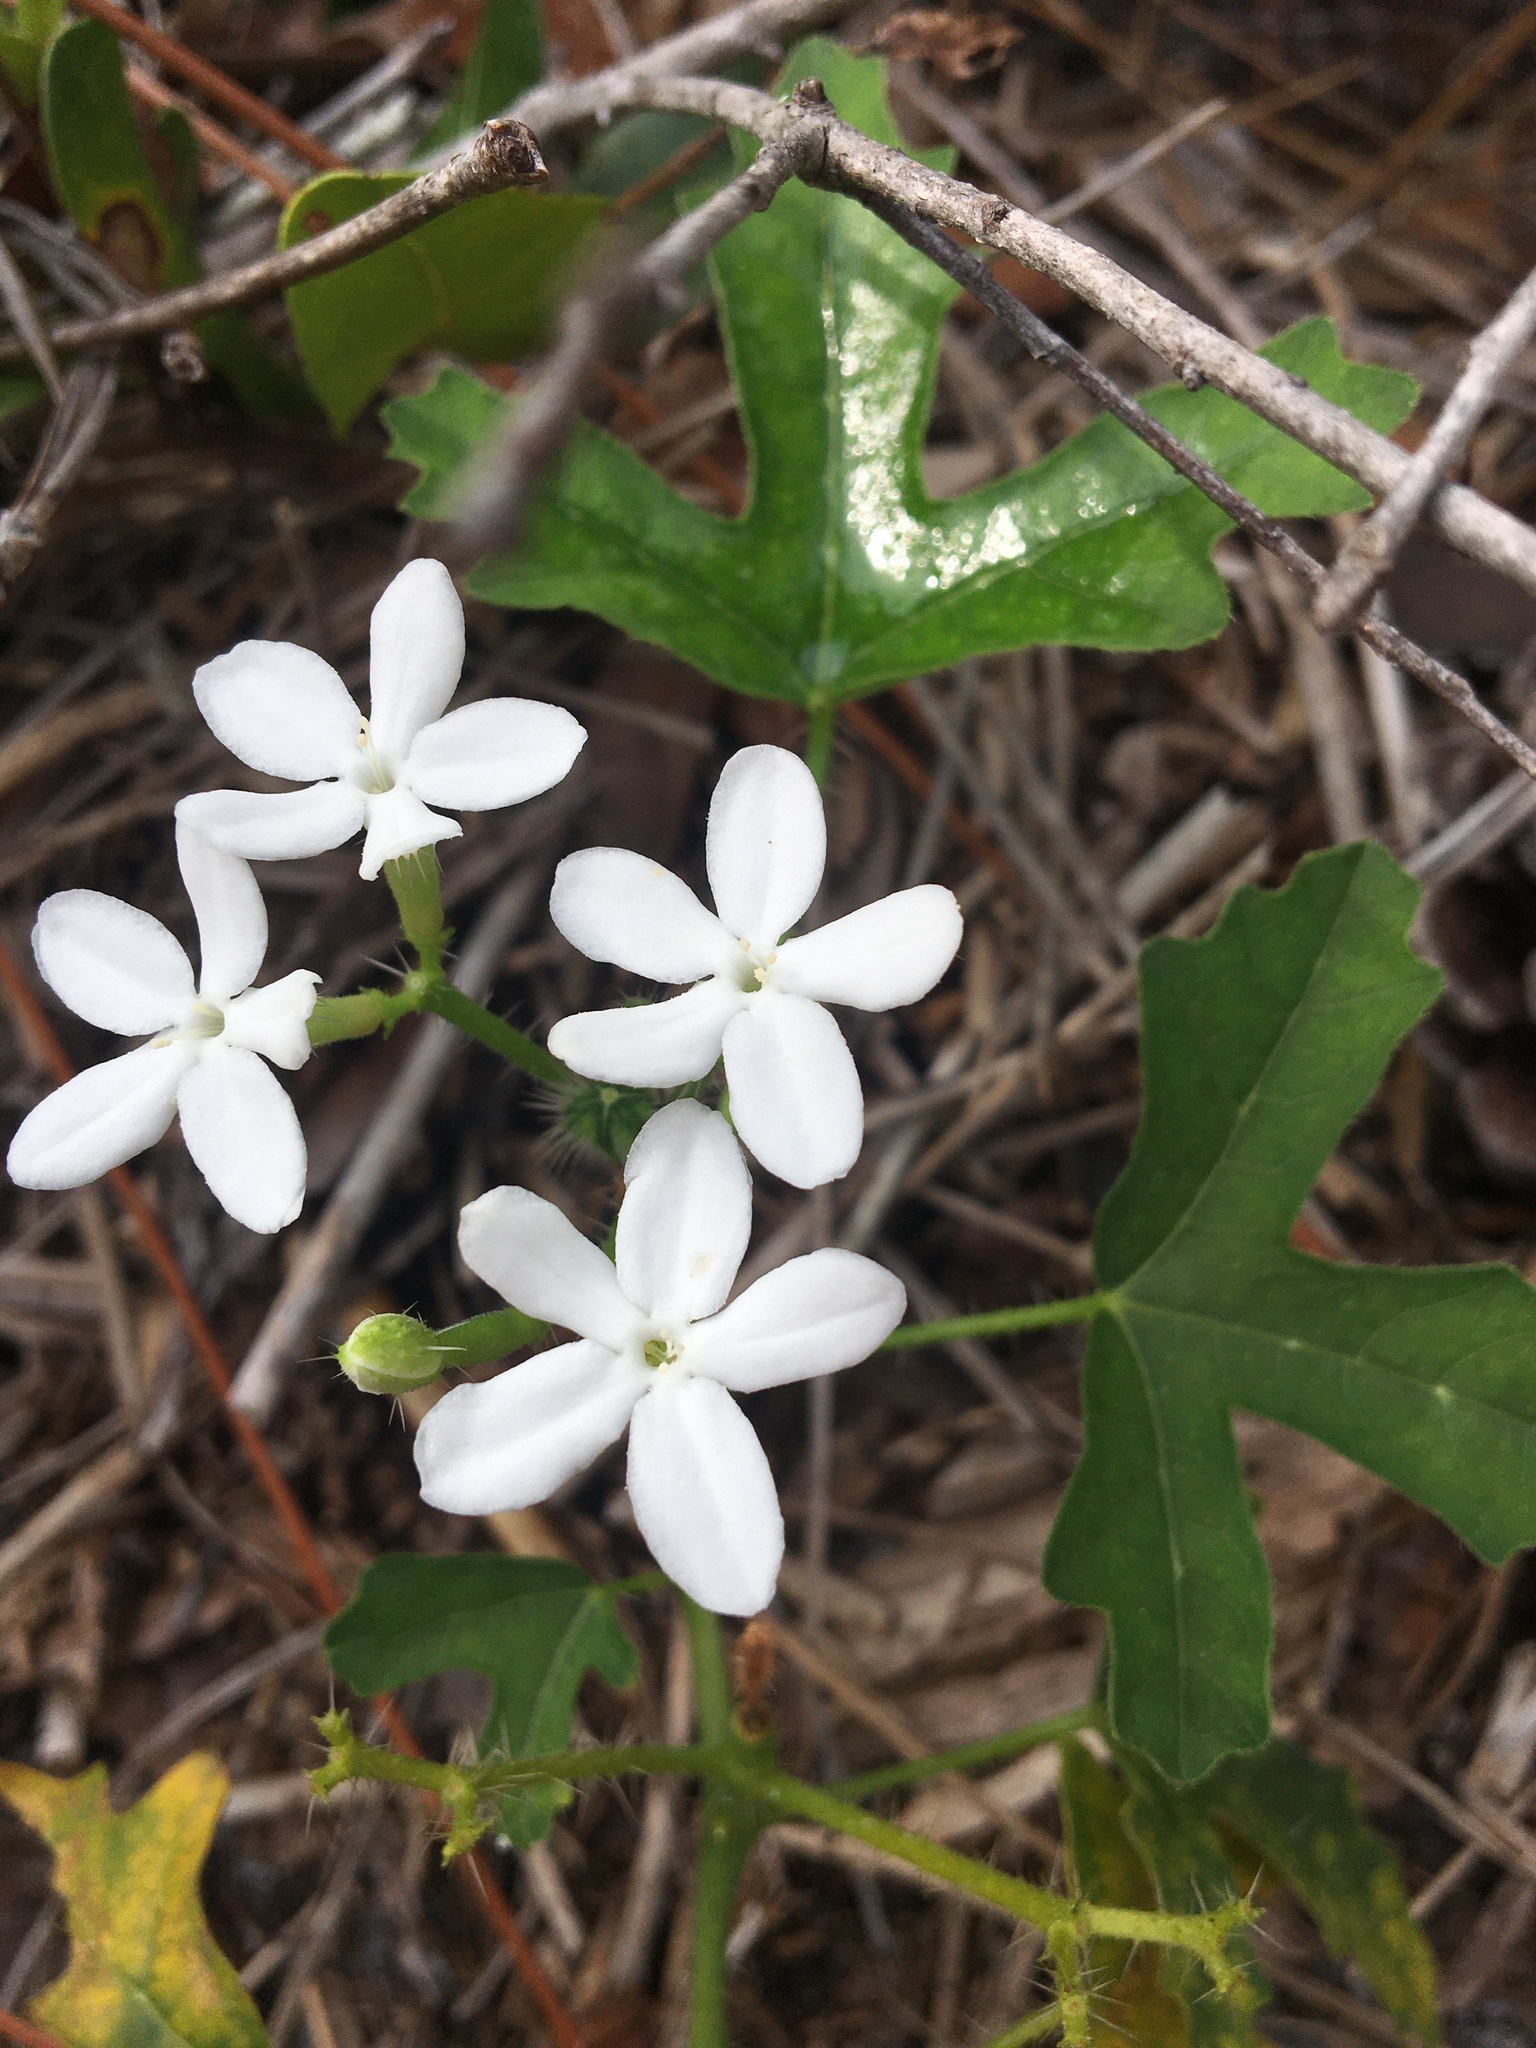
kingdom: Plantae
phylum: Tracheophyta
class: Magnoliopsida
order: Malpighiales
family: Euphorbiaceae
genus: Cnidoscolus
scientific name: Cnidoscolus stimulosus
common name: Bull-nettle
